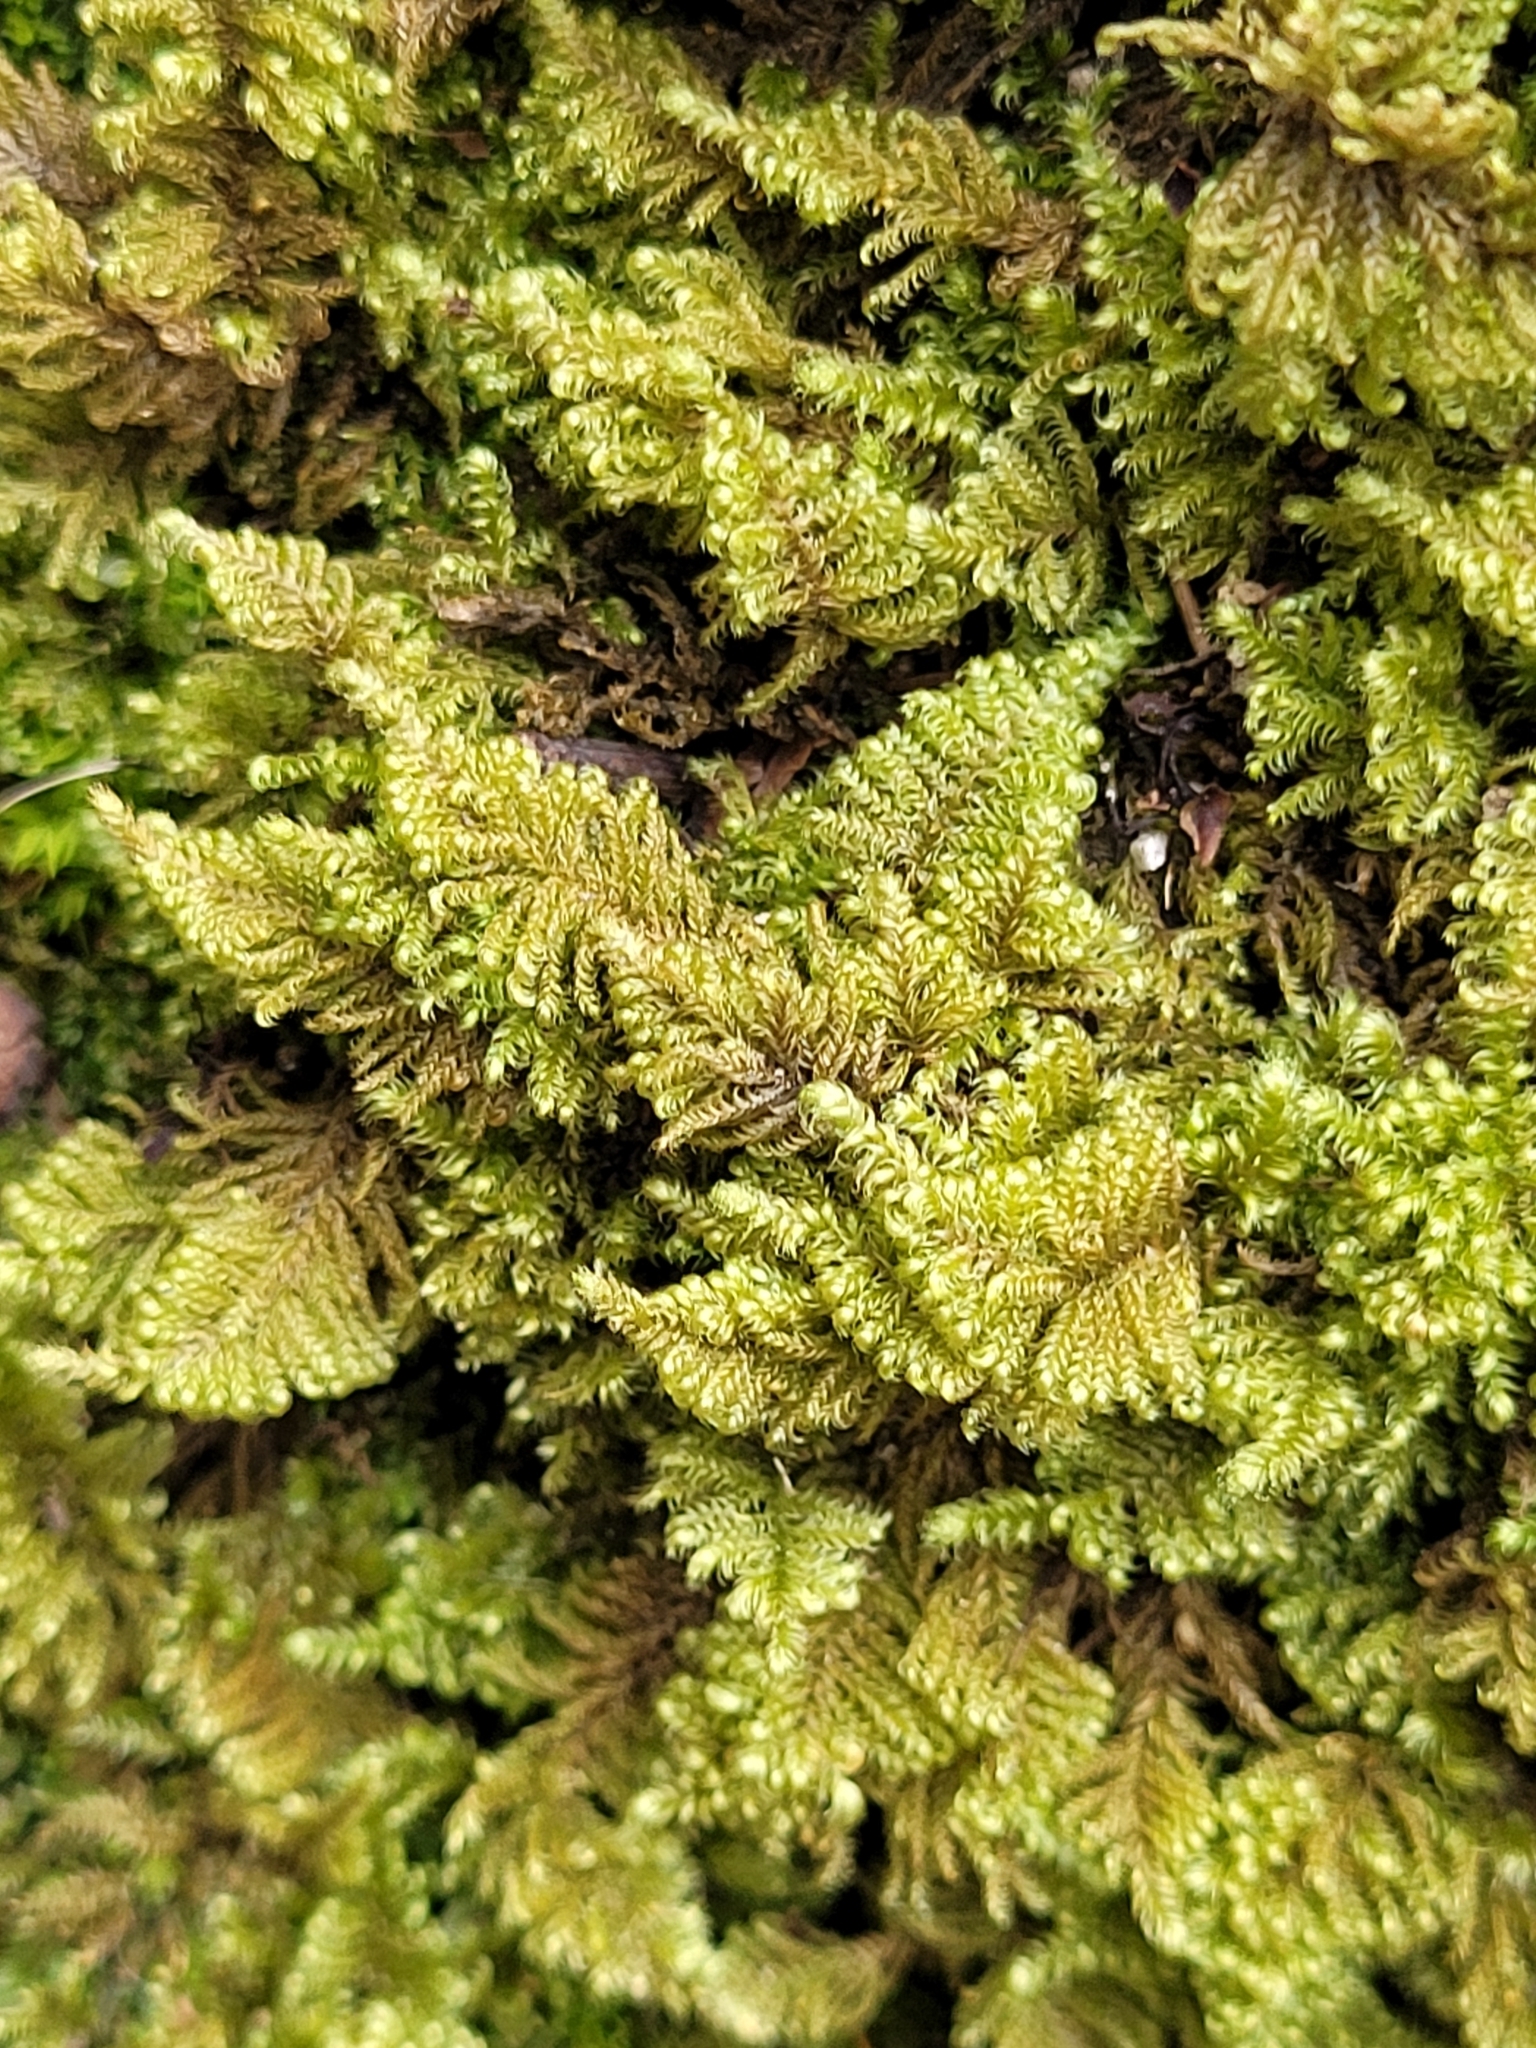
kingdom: Plantae
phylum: Bryophyta
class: Bryopsida
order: Hypnales
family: Myuriaceae
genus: Ctenidium
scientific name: Ctenidium molluscum
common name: Chalk comb-moss
